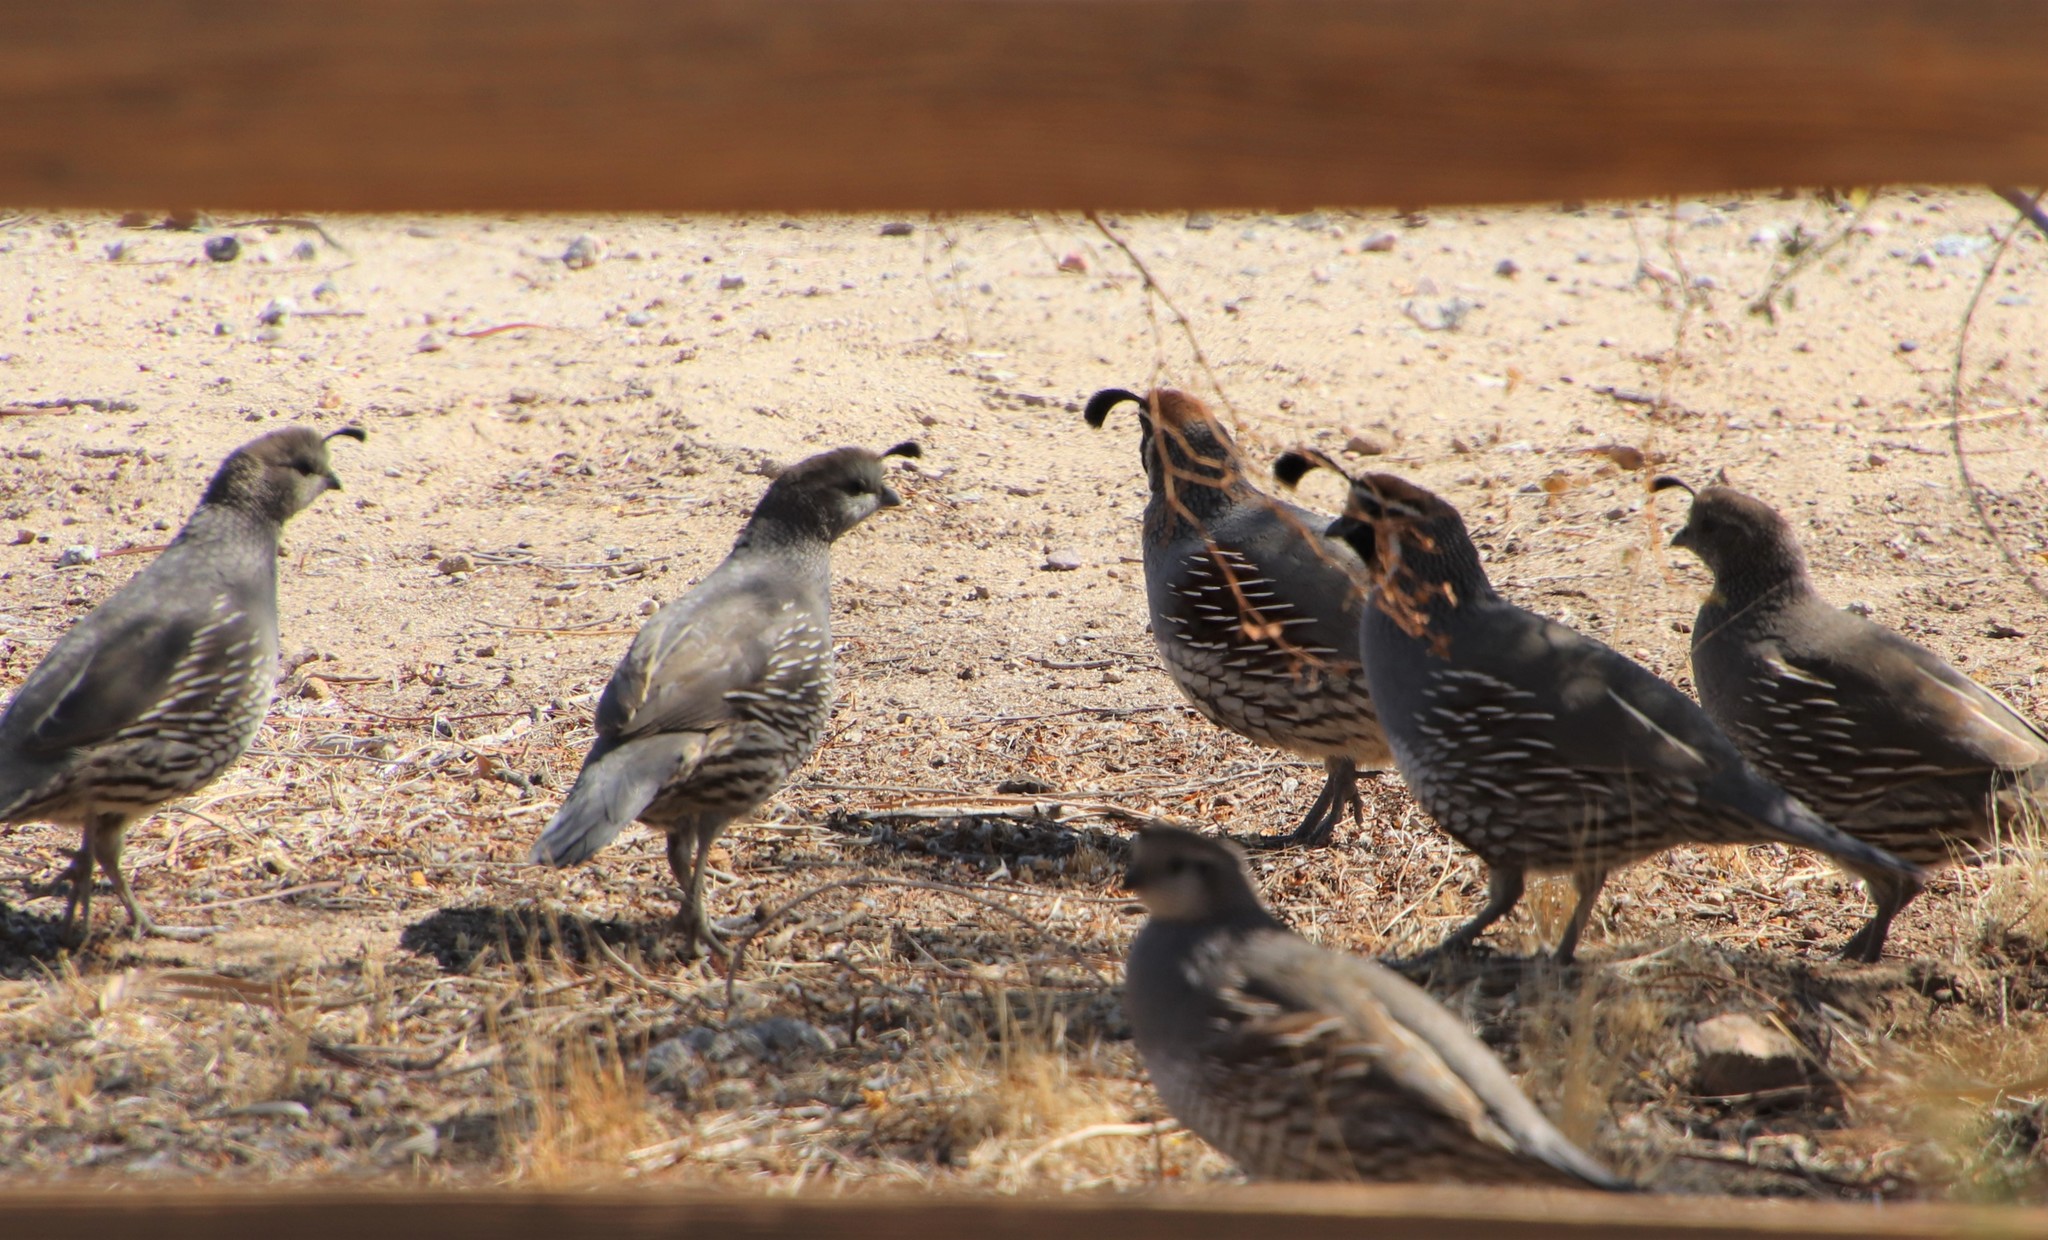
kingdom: Animalia
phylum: Chordata
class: Aves
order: Galliformes
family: Odontophoridae
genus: Callipepla
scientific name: Callipepla californica
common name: California quail
